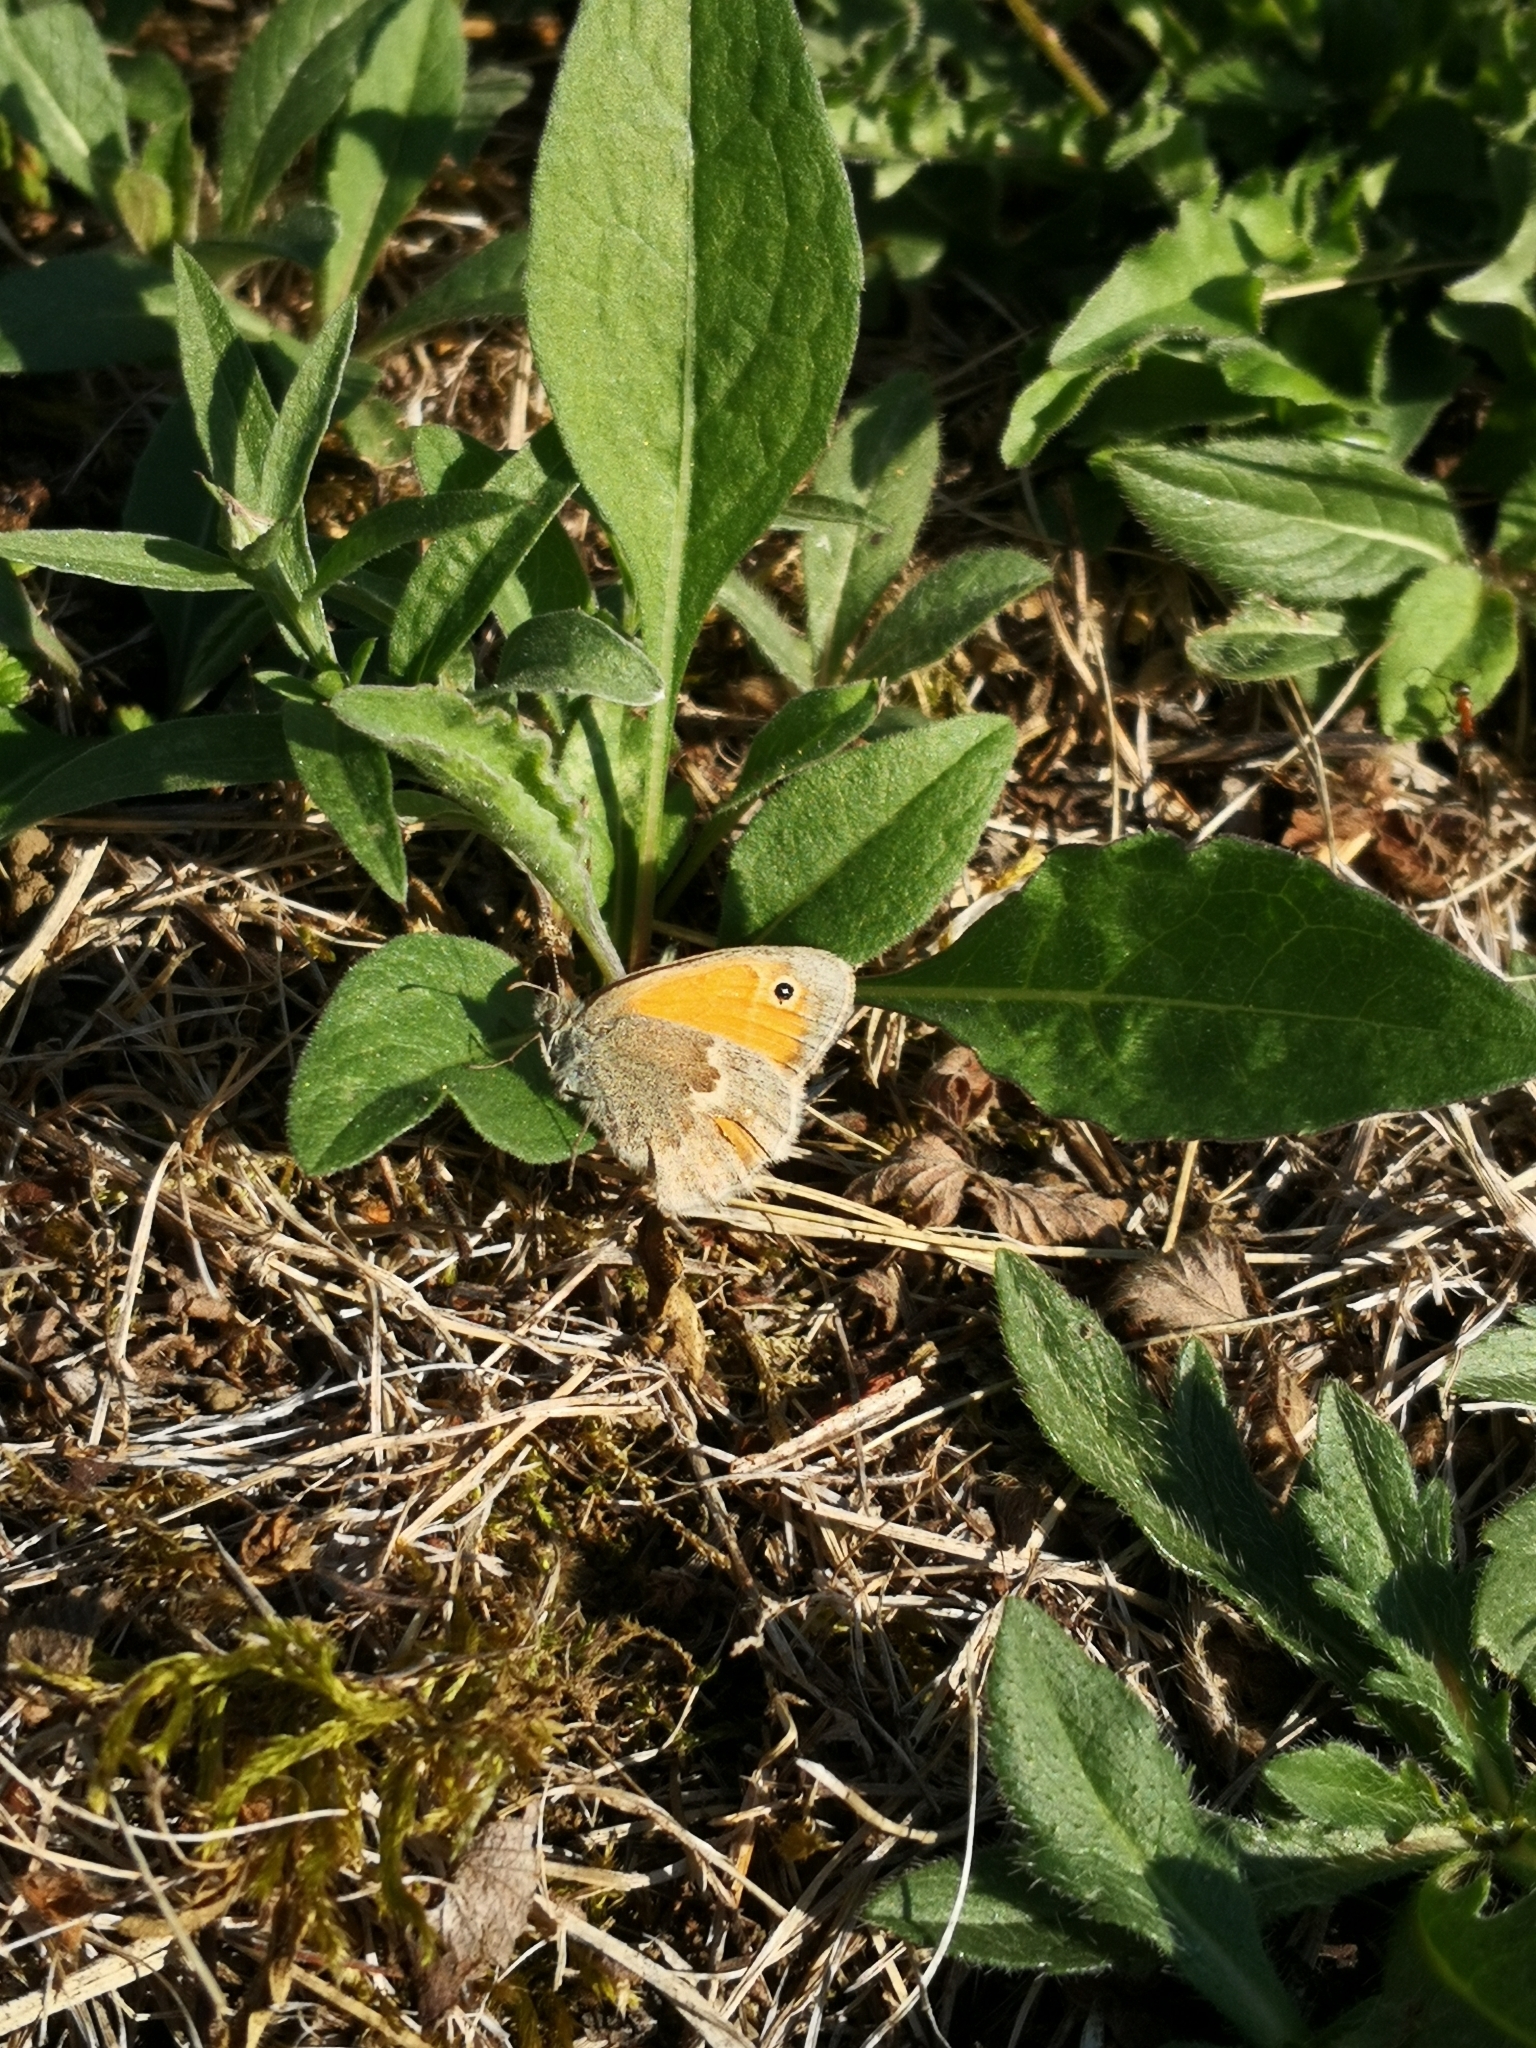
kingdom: Animalia
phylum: Arthropoda
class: Insecta
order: Lepidoptera
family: Nymphalidae
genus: Coenonympha
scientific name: Coenonympha pamphilus
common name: Small heath
